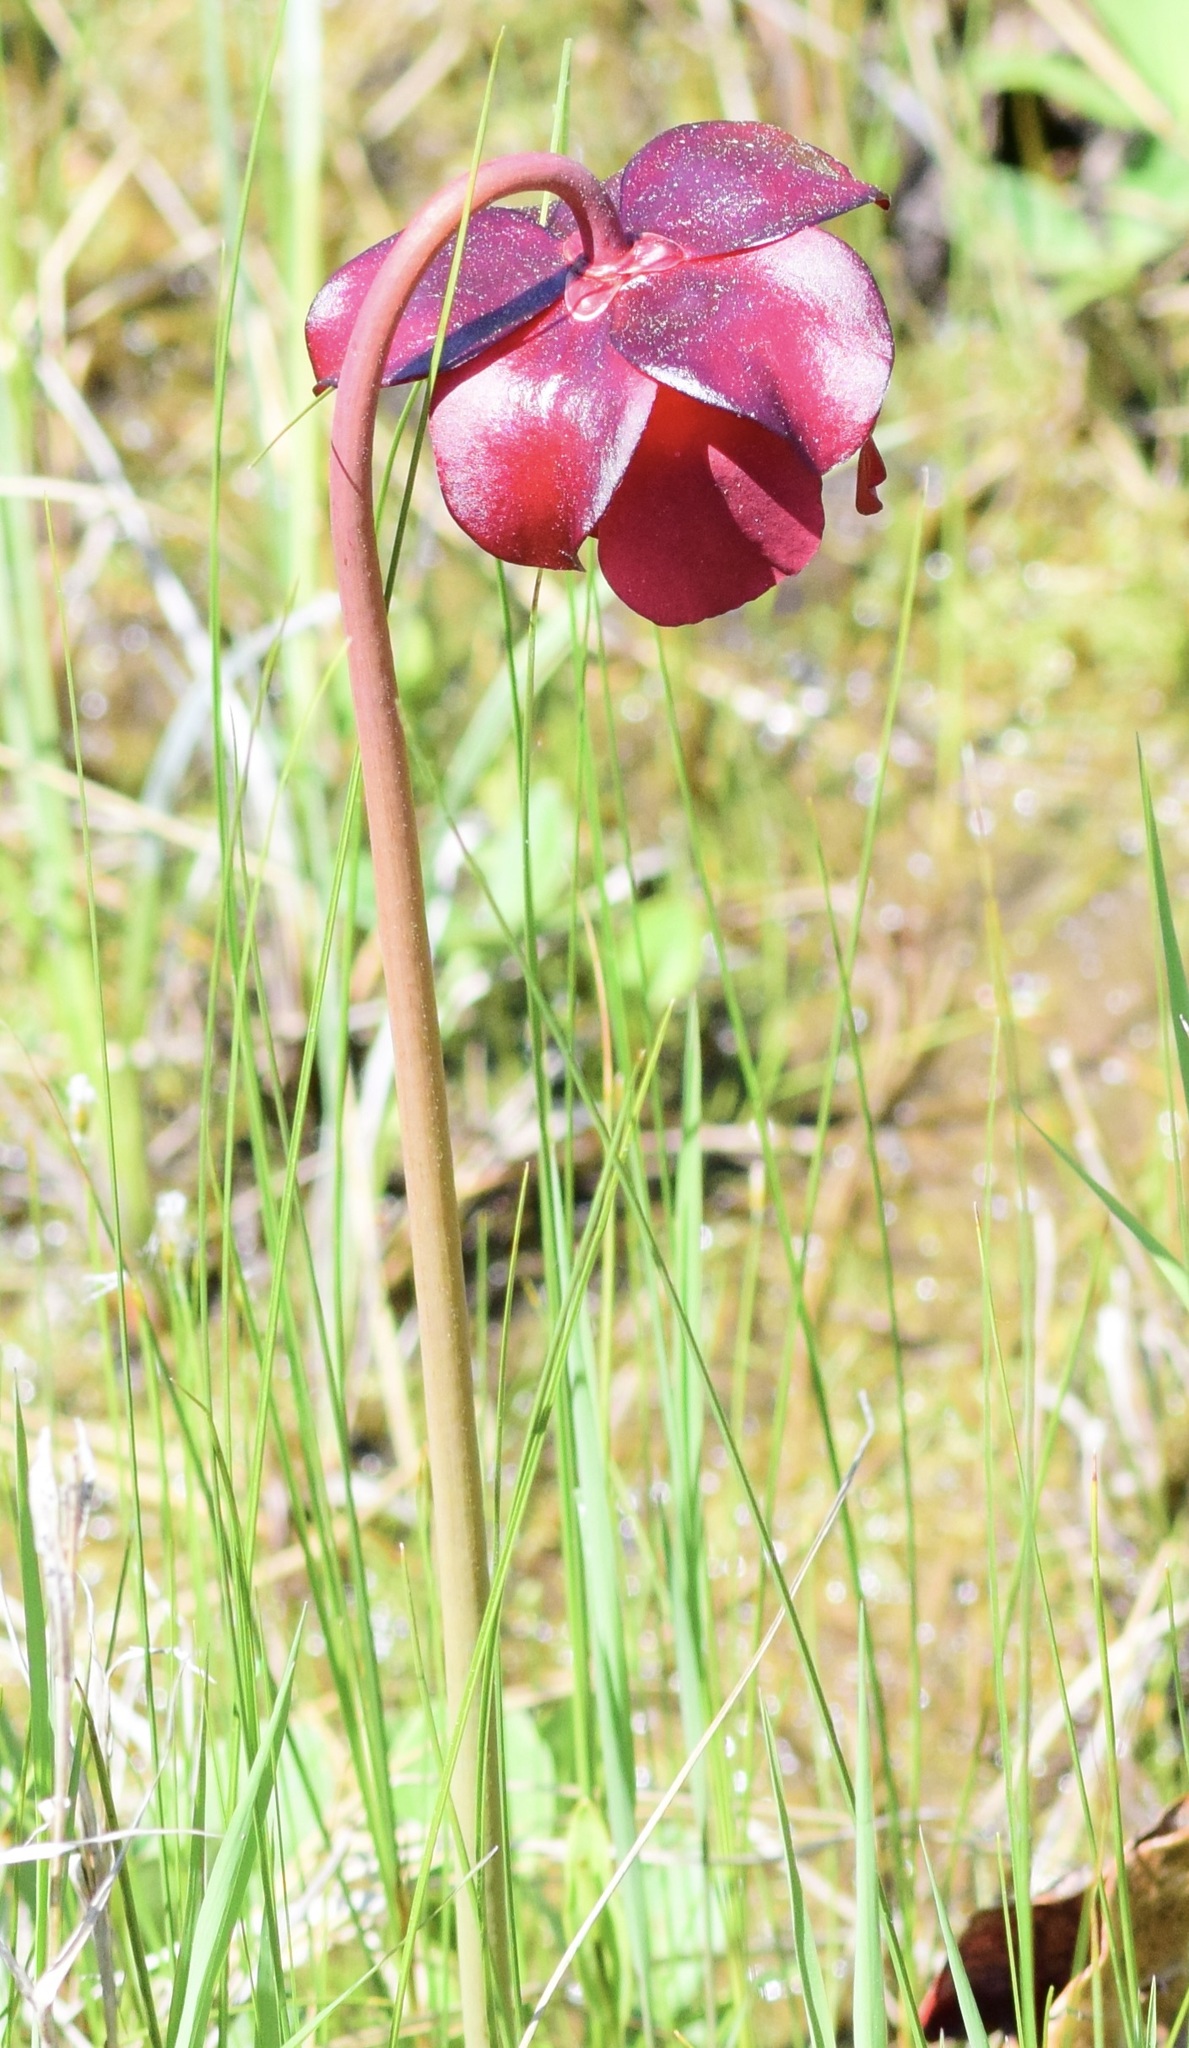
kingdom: Plantae
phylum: Tracheophyta
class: Magnoliopsida
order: Ericales
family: Sarraceniaceae
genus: Sarracenia
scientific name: Sarracenia purpurea
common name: Pitcherplant
